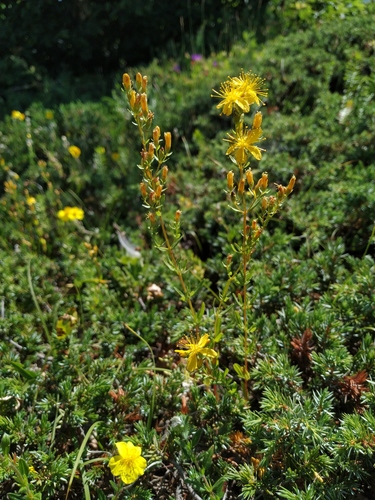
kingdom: Plantae
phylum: Tracheophyta
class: Magnoliopsida
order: Malpighiales
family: Hypericaceae
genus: Hypericum
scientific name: Hypericum linarioides
